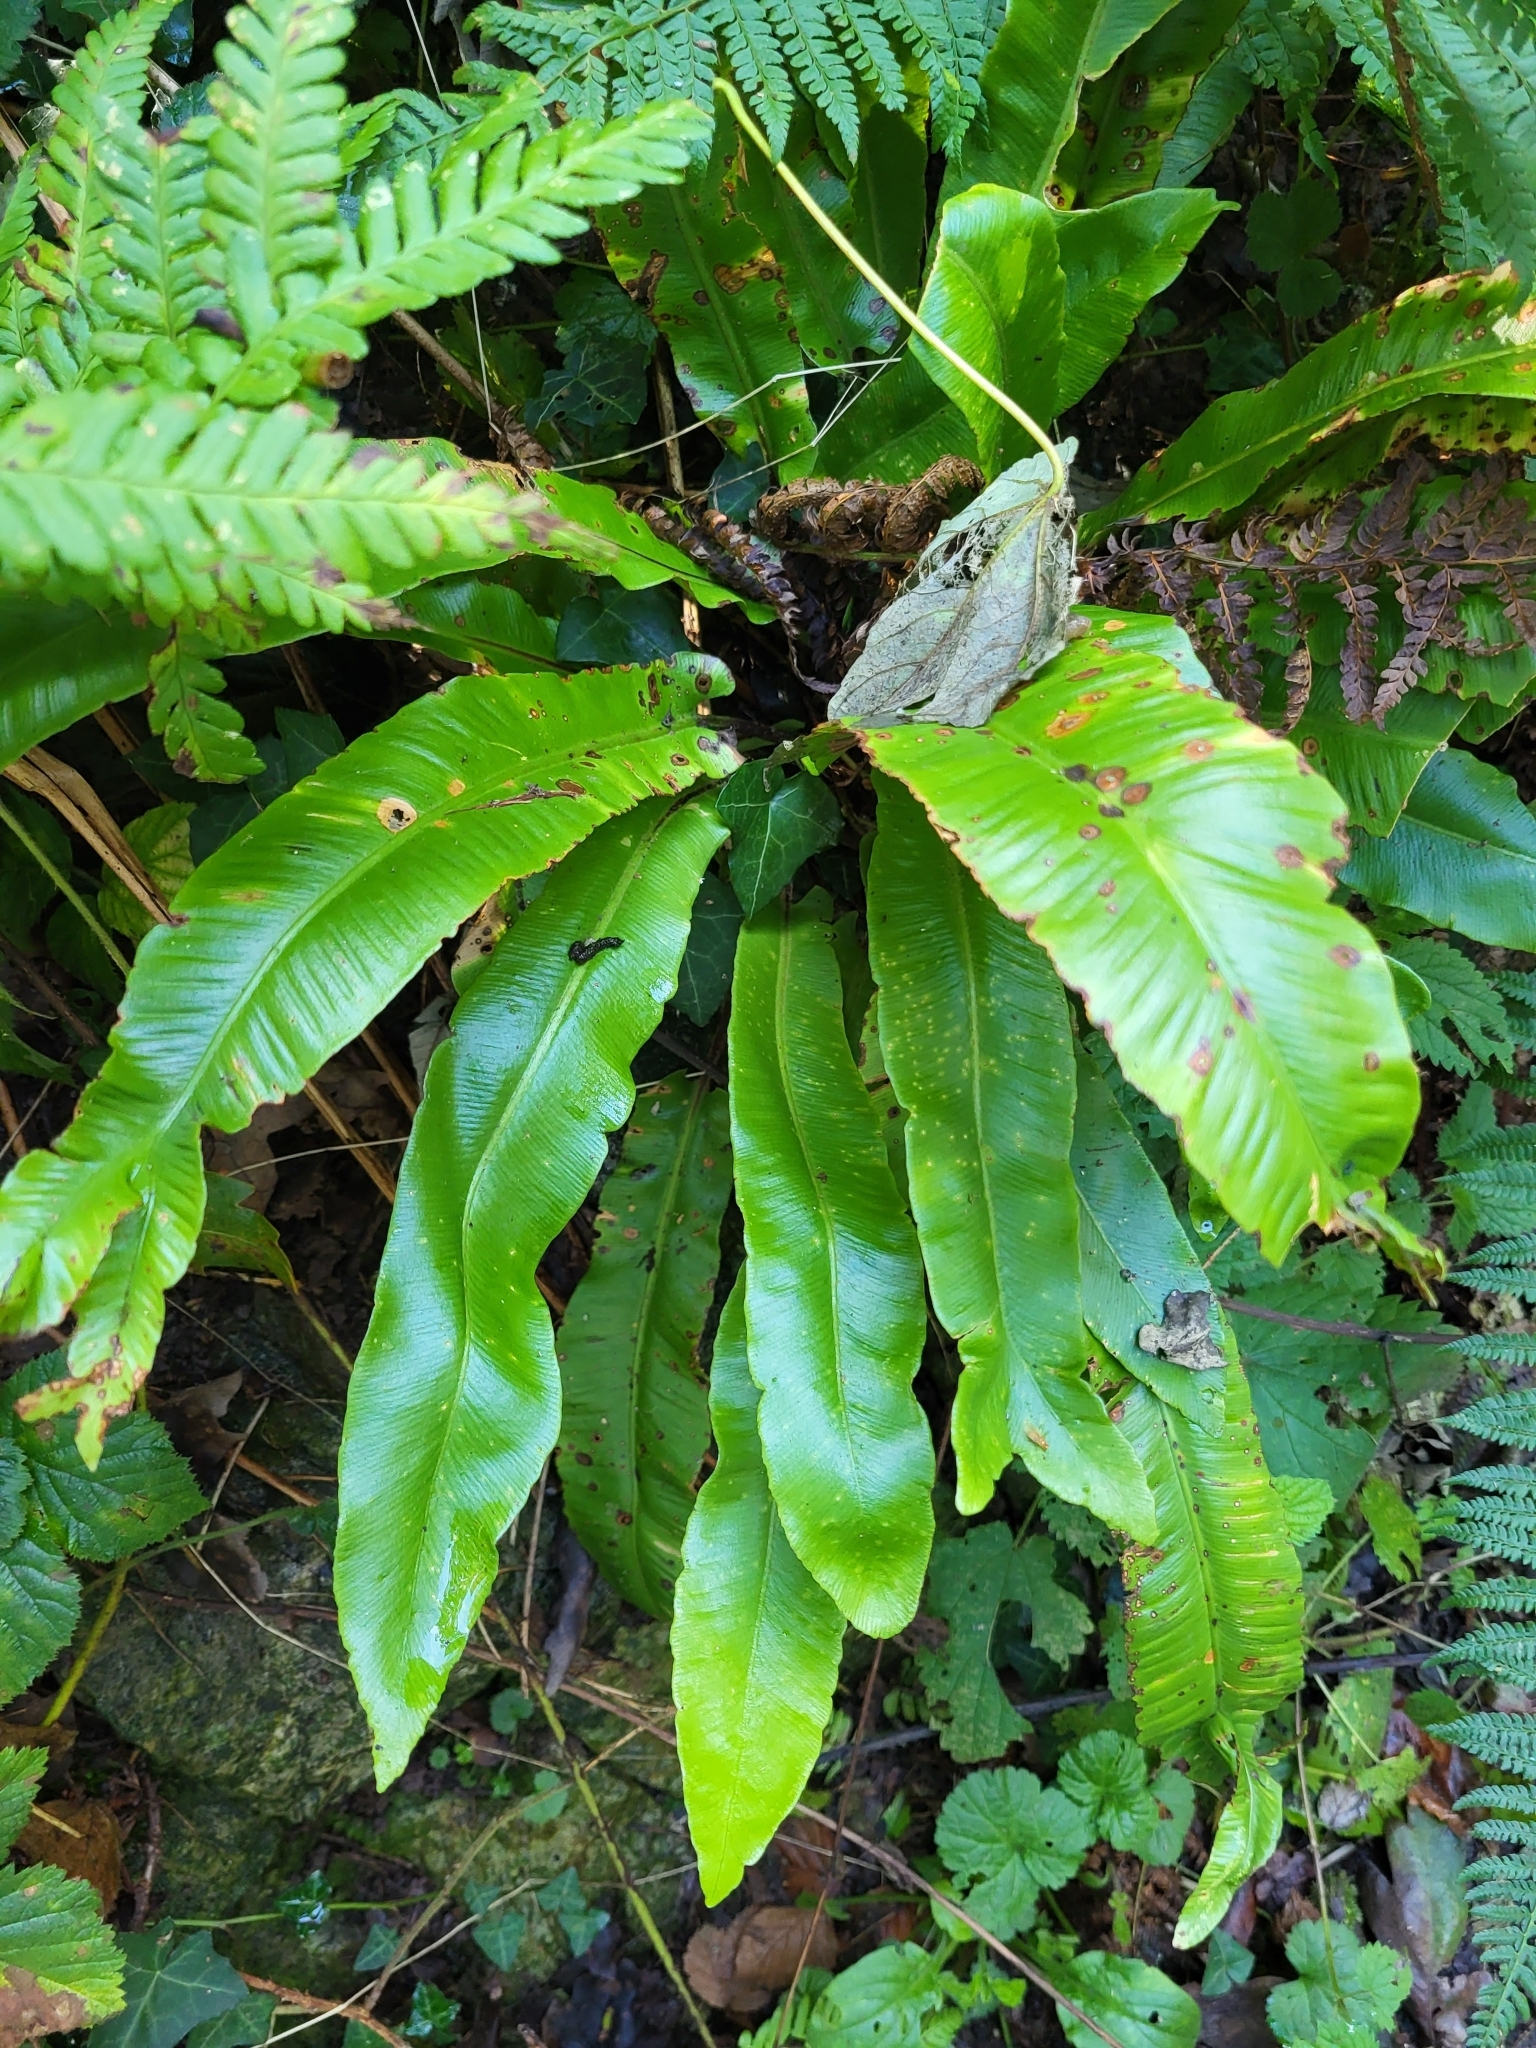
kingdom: Plantae
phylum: Tracheophyta
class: Polypodiopsida
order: Polypodiales
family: Aspleniaceae
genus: Asplenium
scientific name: Asplenium scolopendrium
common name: Hart's-tongue fern
